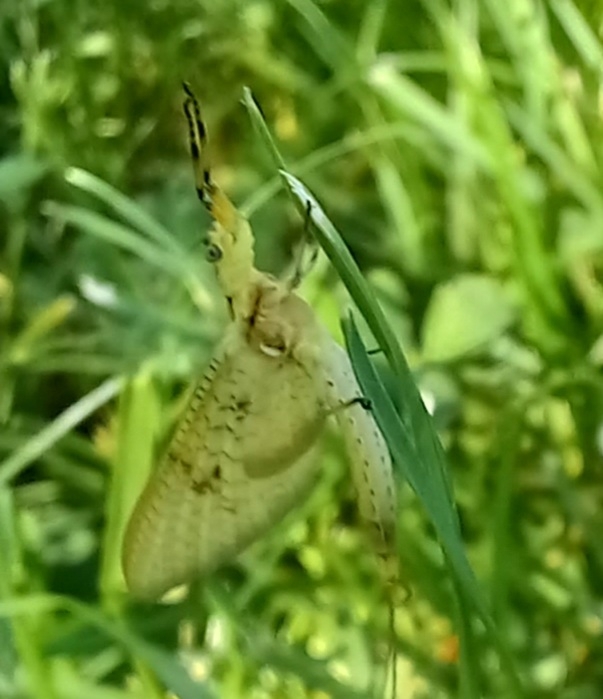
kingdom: Animalia
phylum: Arthropoda
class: Insecta
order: Ephemeroptera
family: Ephemeridae
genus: Ephemera
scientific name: Ephemera glaucops
